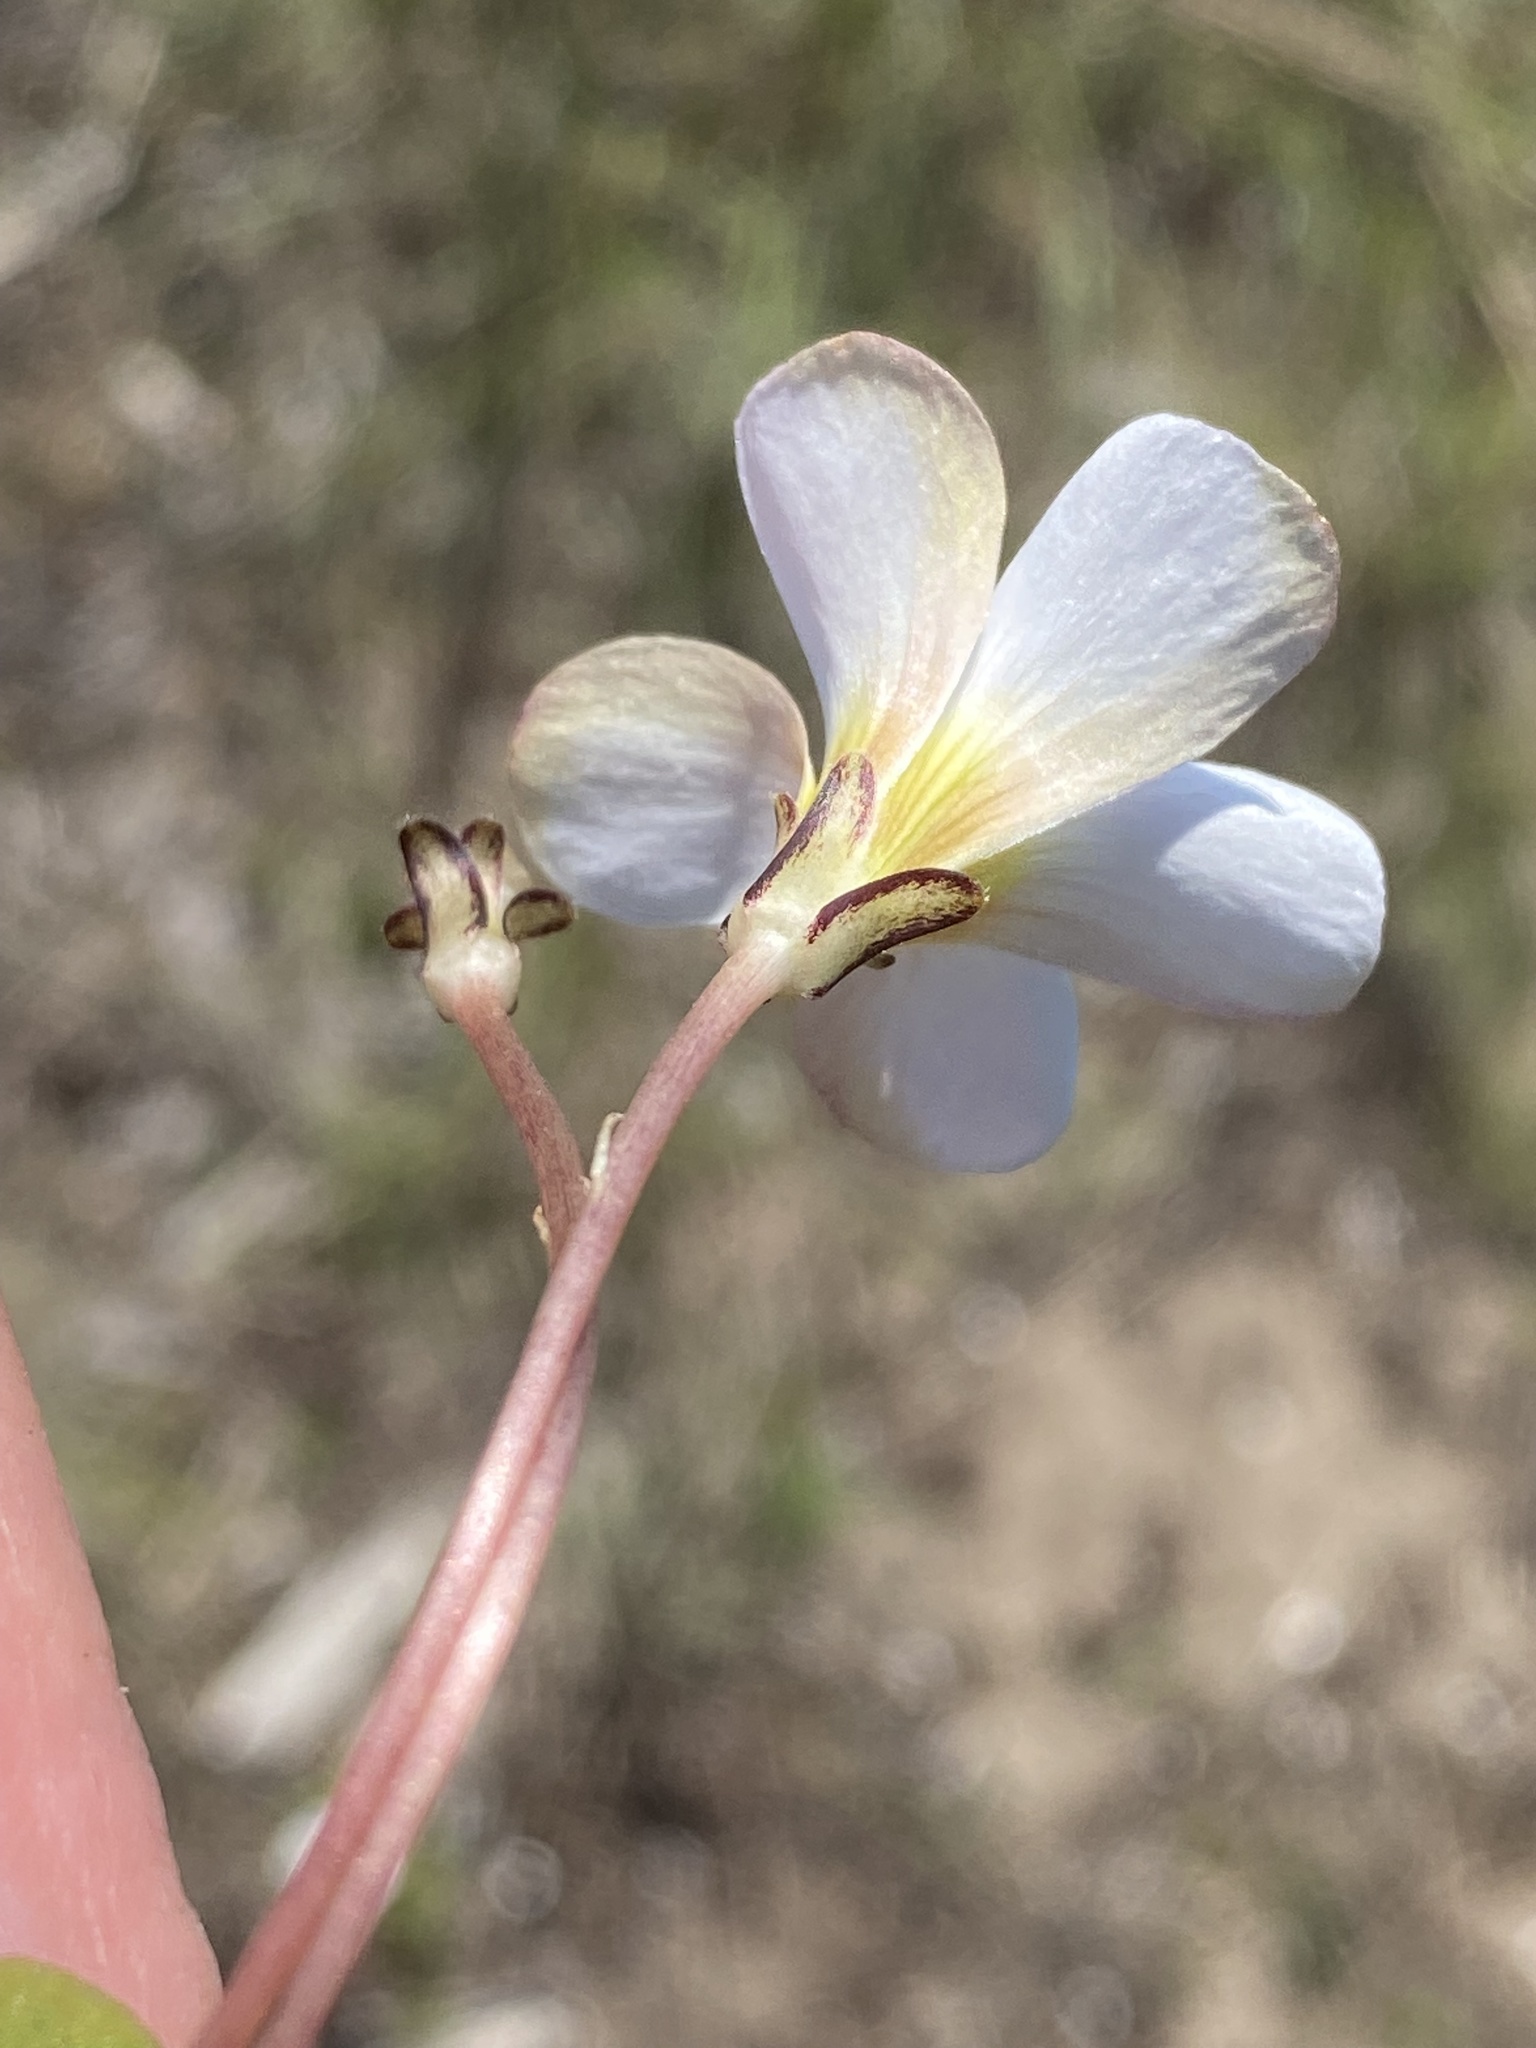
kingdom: Plantae
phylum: Tracheophyta
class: Magnoliopsida
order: Oxalidales
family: Oxalidaceae
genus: Oxalis
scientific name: Oxalis depressa
